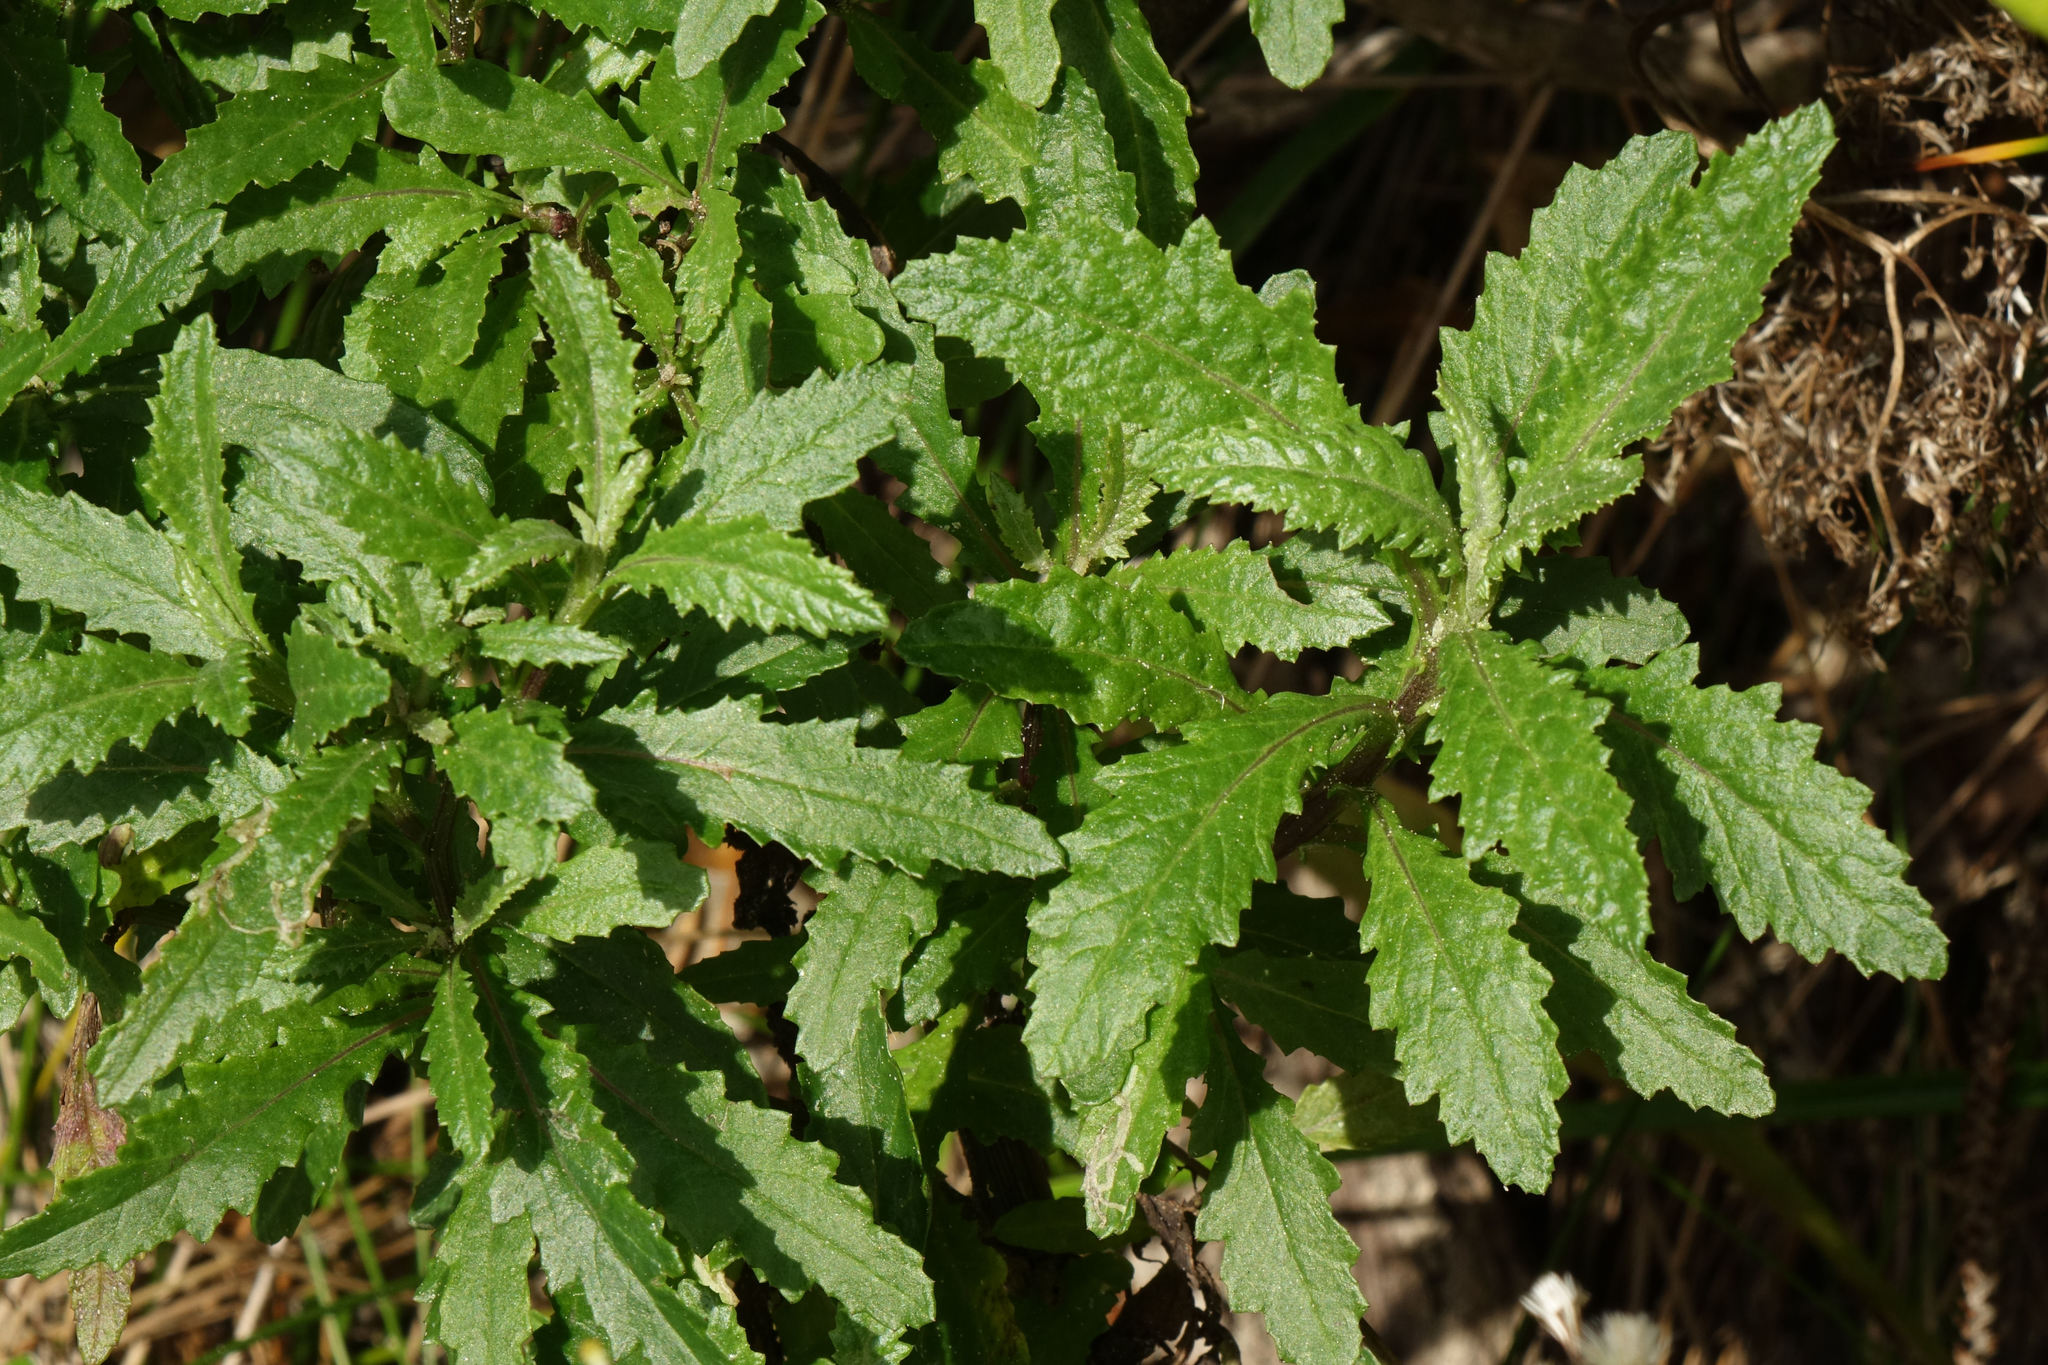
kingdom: Plantae
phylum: Tracheophyta
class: Magnoliopsida
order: Asterales
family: Asteraceae
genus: Senecio
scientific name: Senecio biserratus
